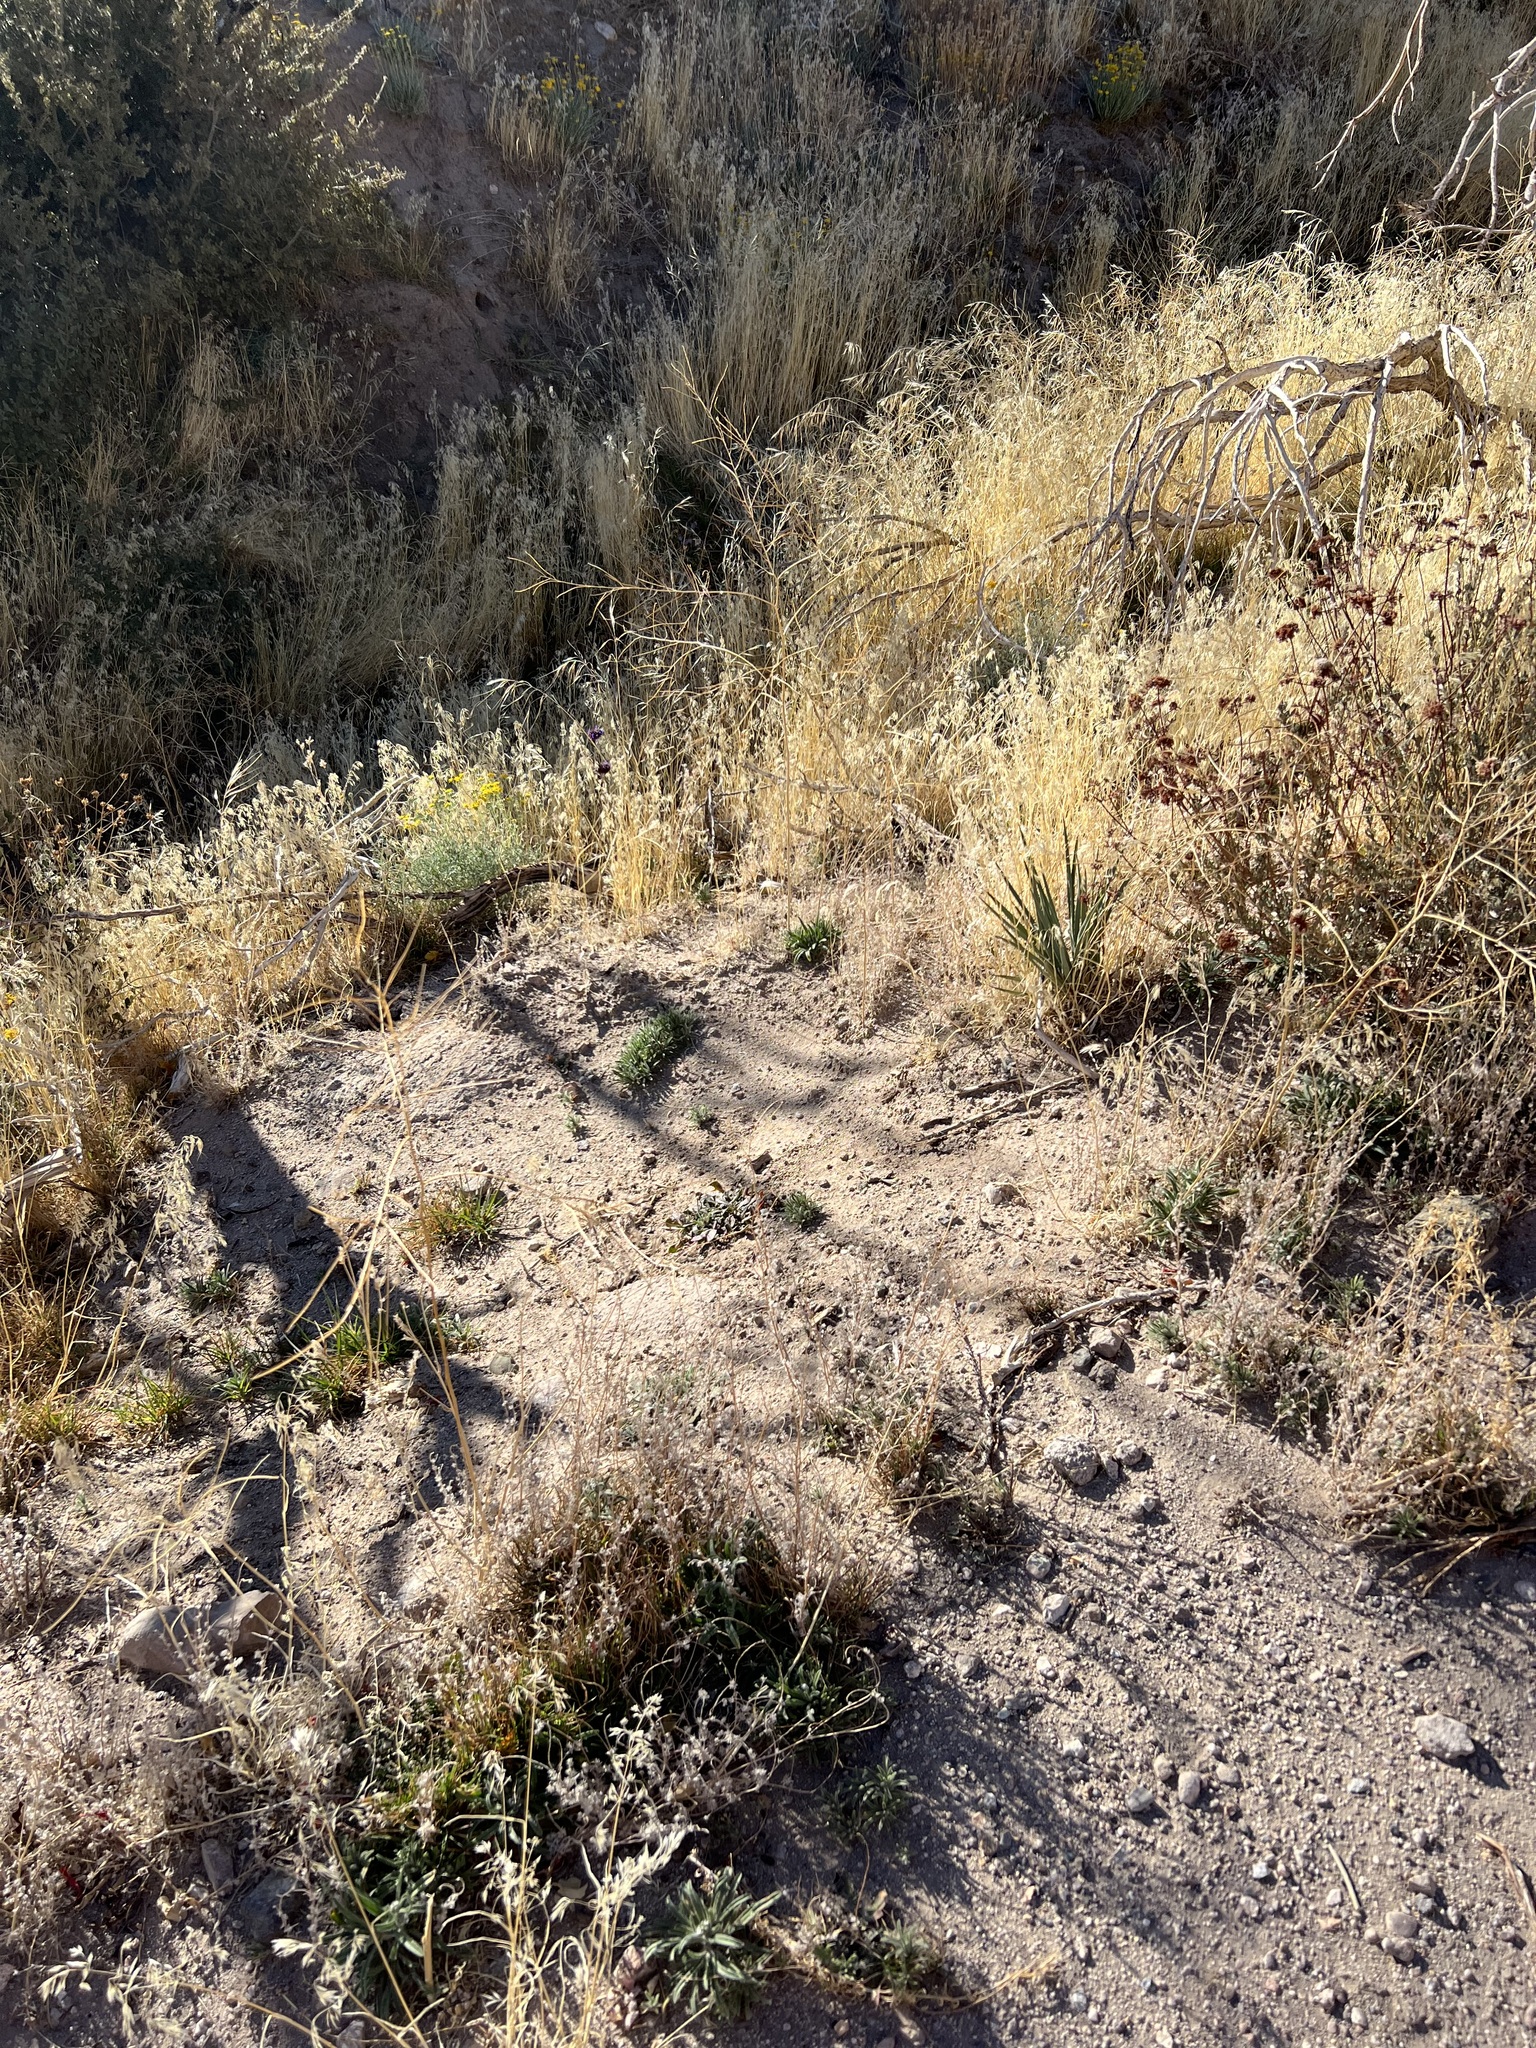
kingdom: Plantae
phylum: Tracheophyta
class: Magnoliopsida
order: Brassicales
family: Brassicaceae
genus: Brassica
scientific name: Brassica tournefortii
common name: Pale cabbage
